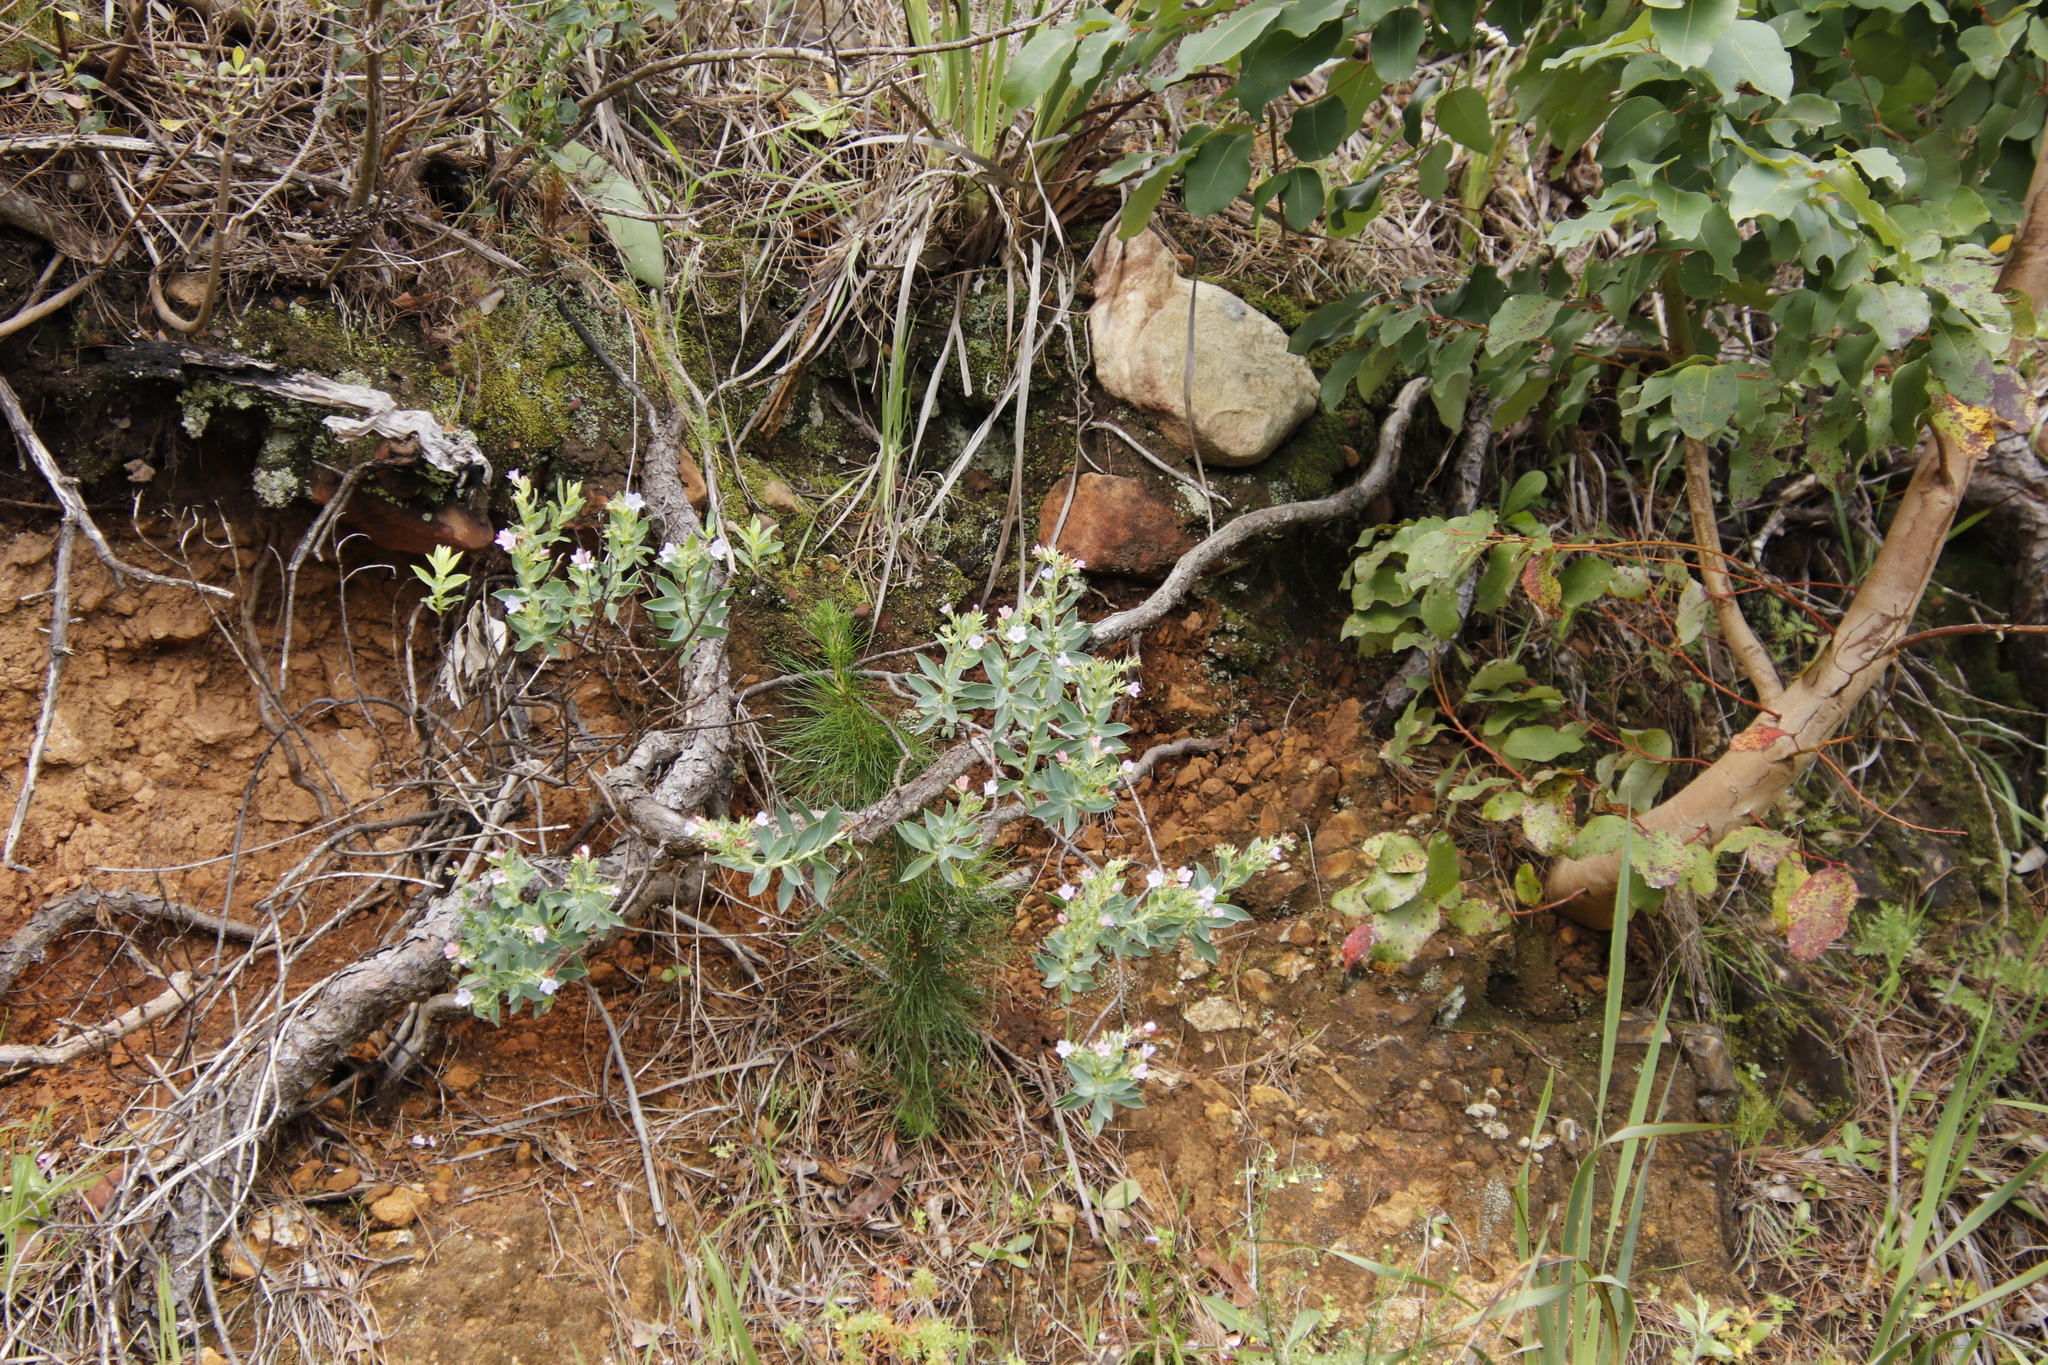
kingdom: Plantae
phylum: Tracheophyta
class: Magnoliopsida
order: Boraginales
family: Boraginaceae
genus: Lobostemon
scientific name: Lobostemon glaucophyllus
